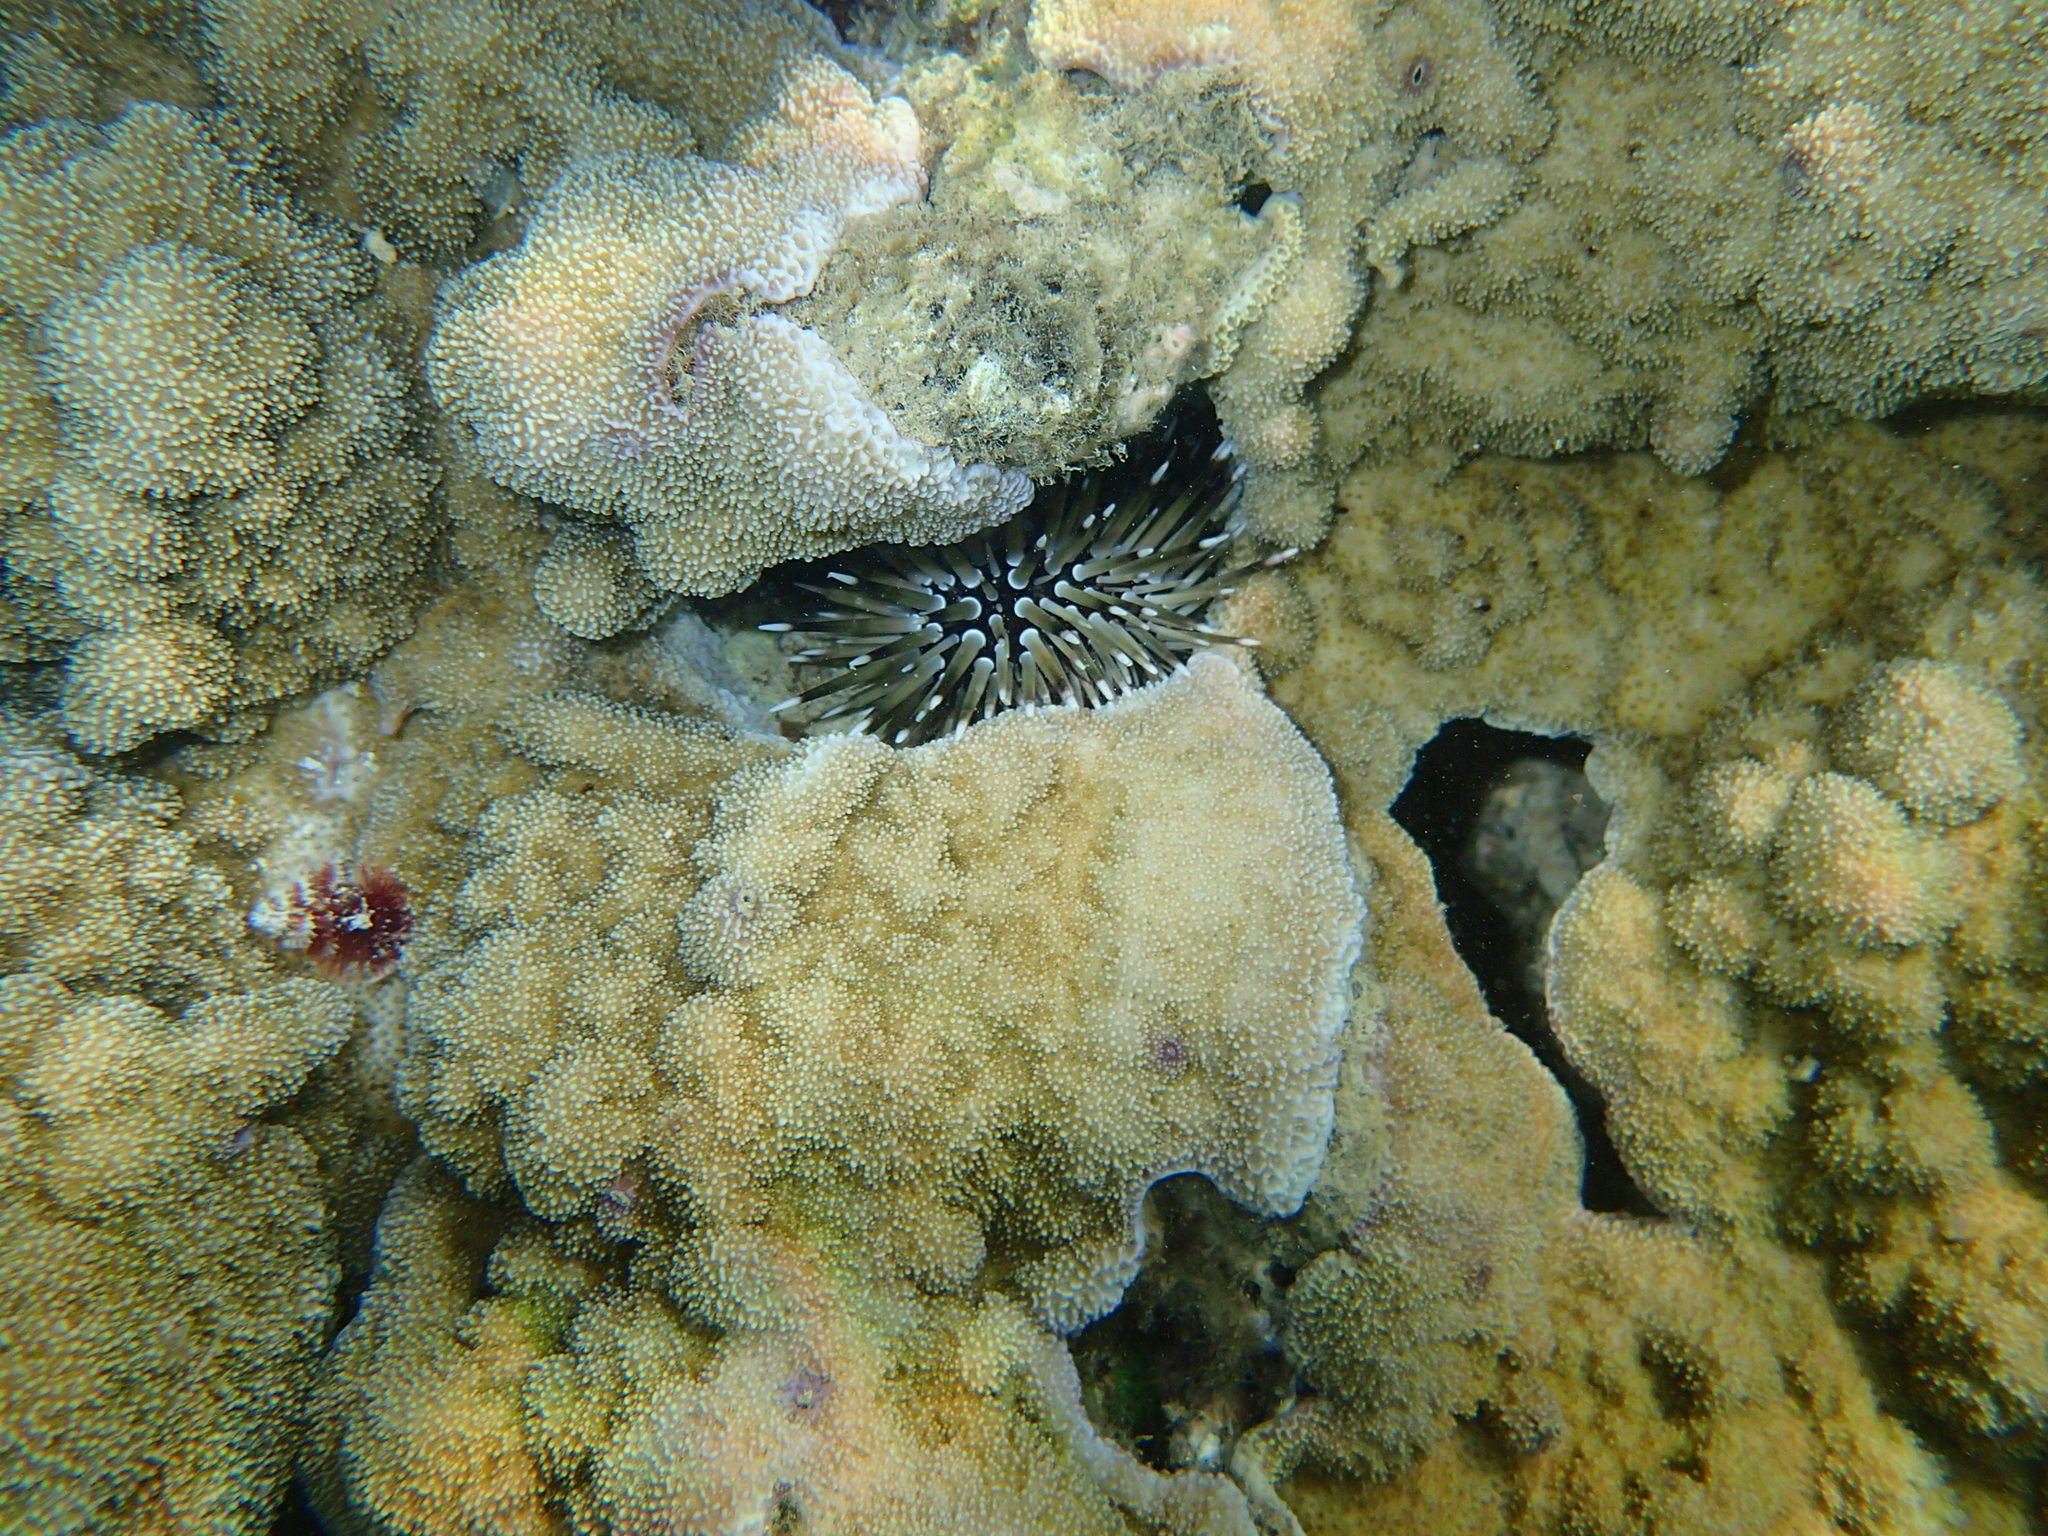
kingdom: Animalia
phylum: Echinodermata
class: Echinoidea
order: Camarodonta
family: Echinometridae
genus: Echinometra
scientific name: Echinometra mathaei
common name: Rock-boring urchin
